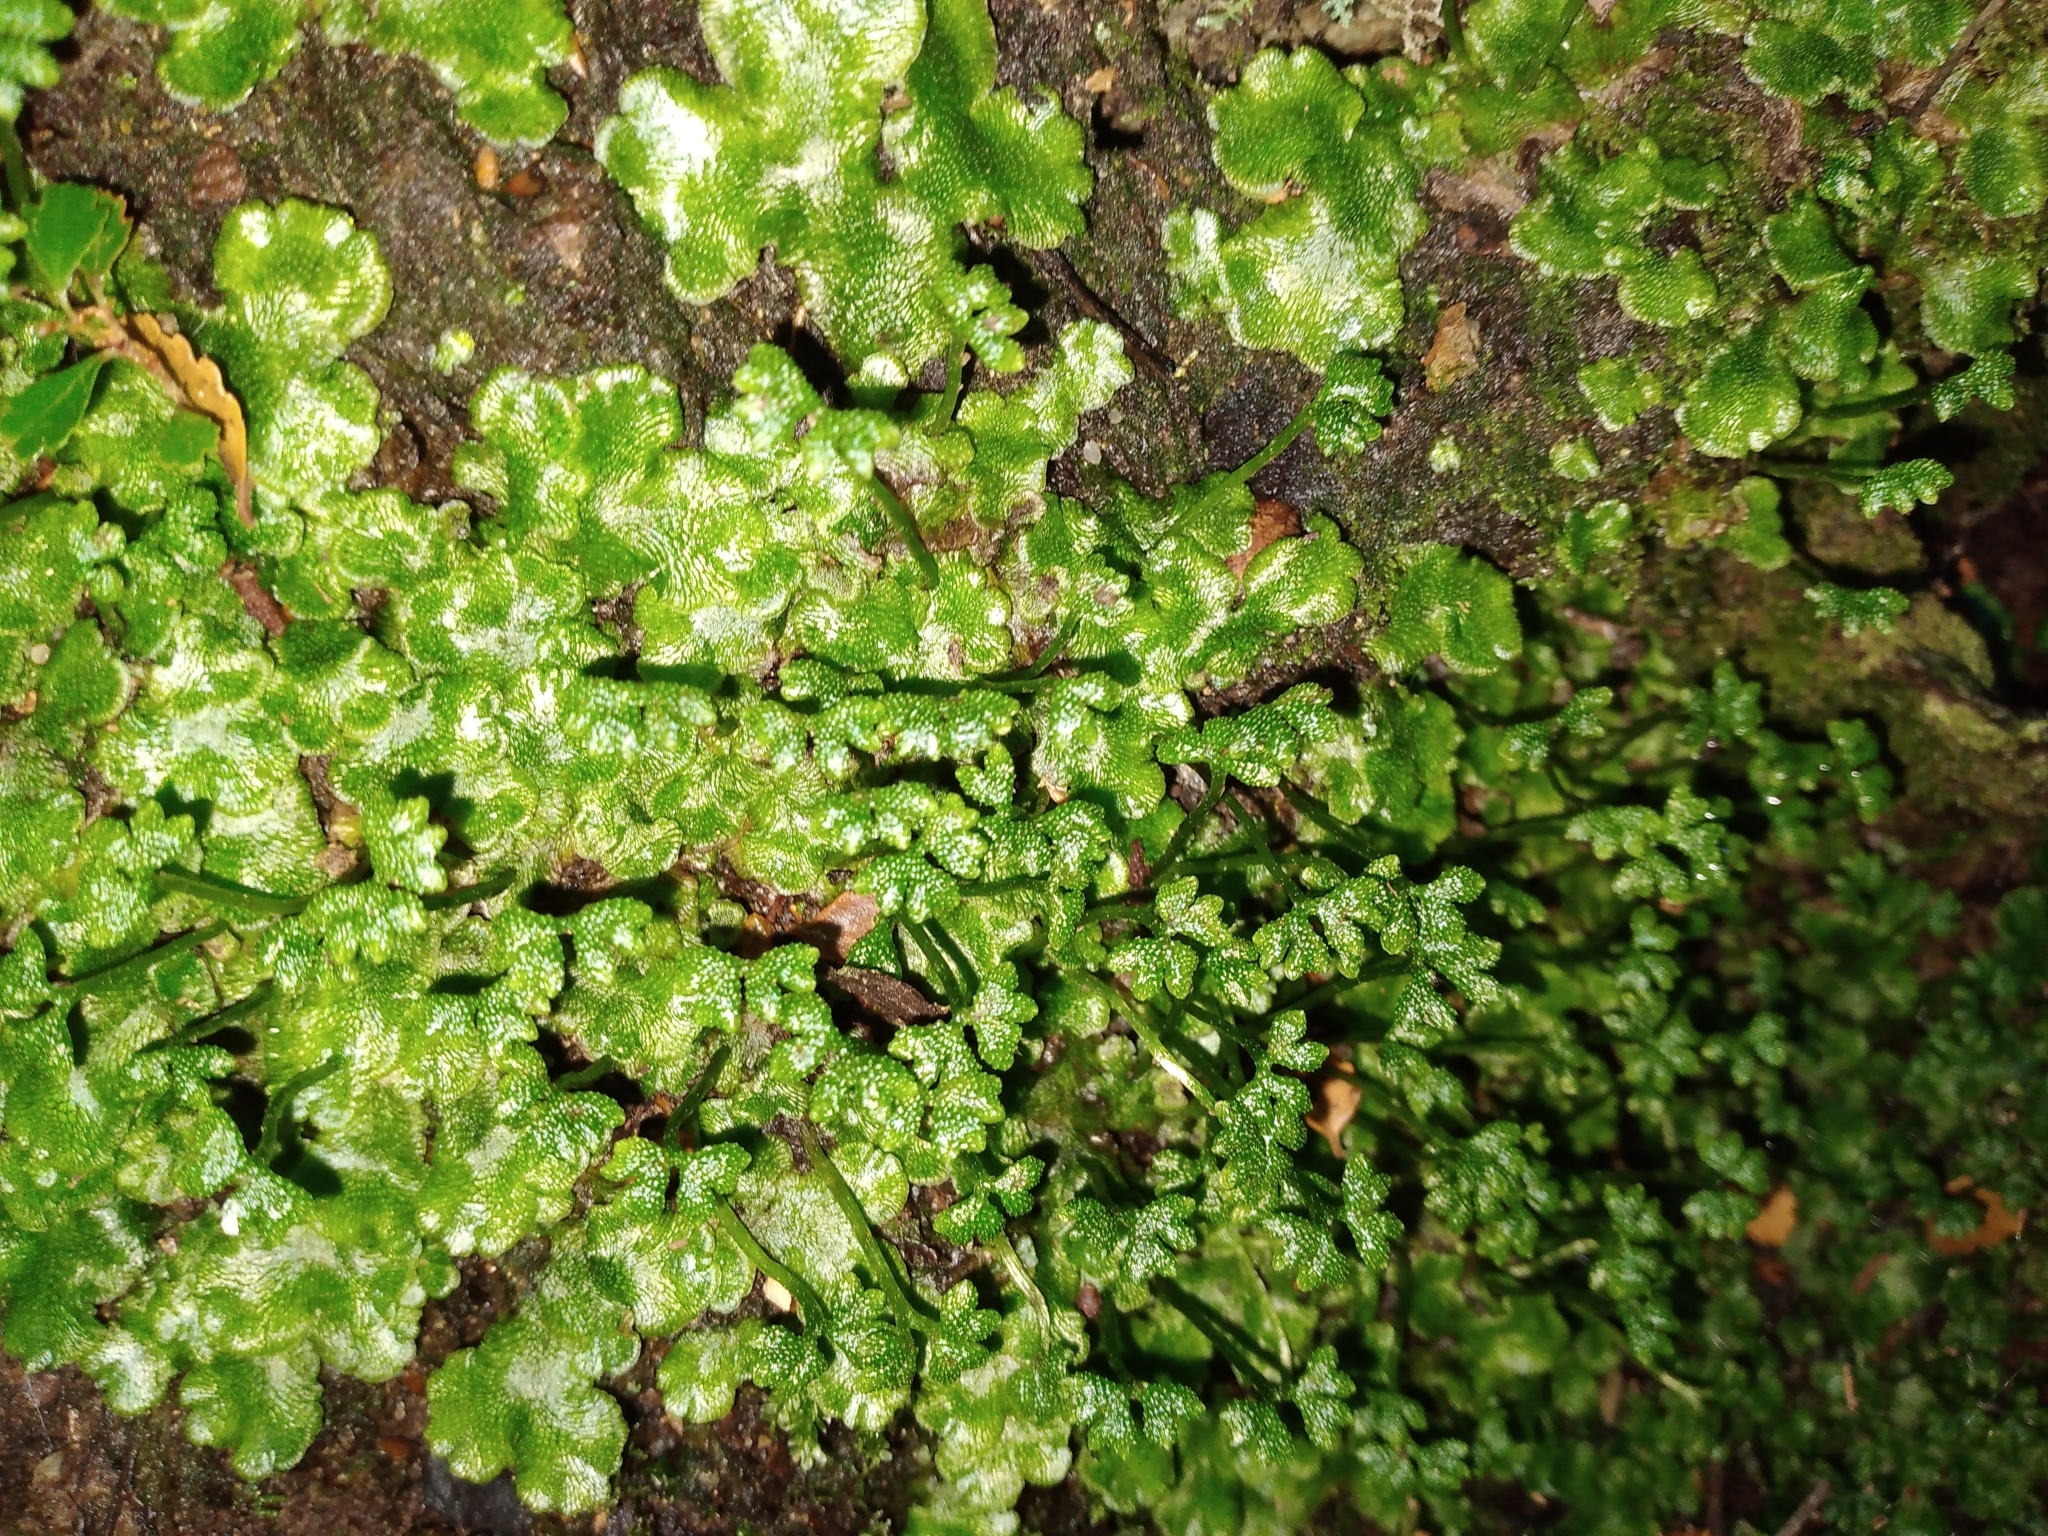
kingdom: Plantae
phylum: Marchantiophyta
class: Marchantiopsida
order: Neohodgsoniales
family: Neohodgsoniaceae
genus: Neohodgsonia
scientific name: Neohodgsonia mirabilis
